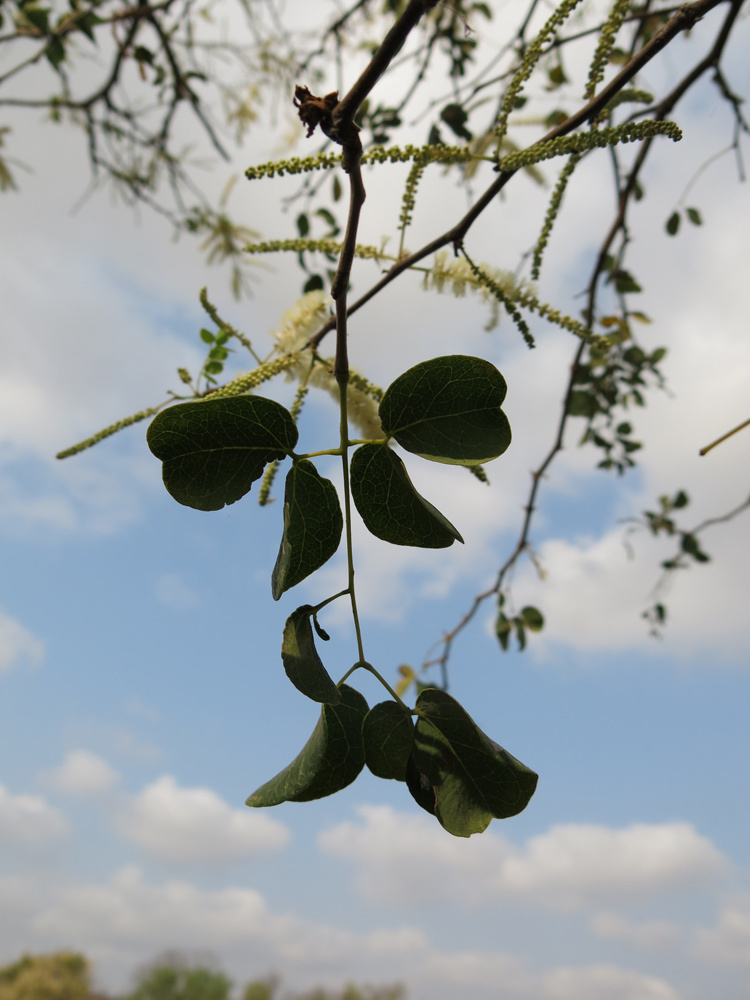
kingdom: Plantae
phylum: Tracheophyta
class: Magnoliopsida
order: Fabales
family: Fabaceae
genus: Senegalia
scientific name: Senegalia nigrescens
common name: Knobthorn
